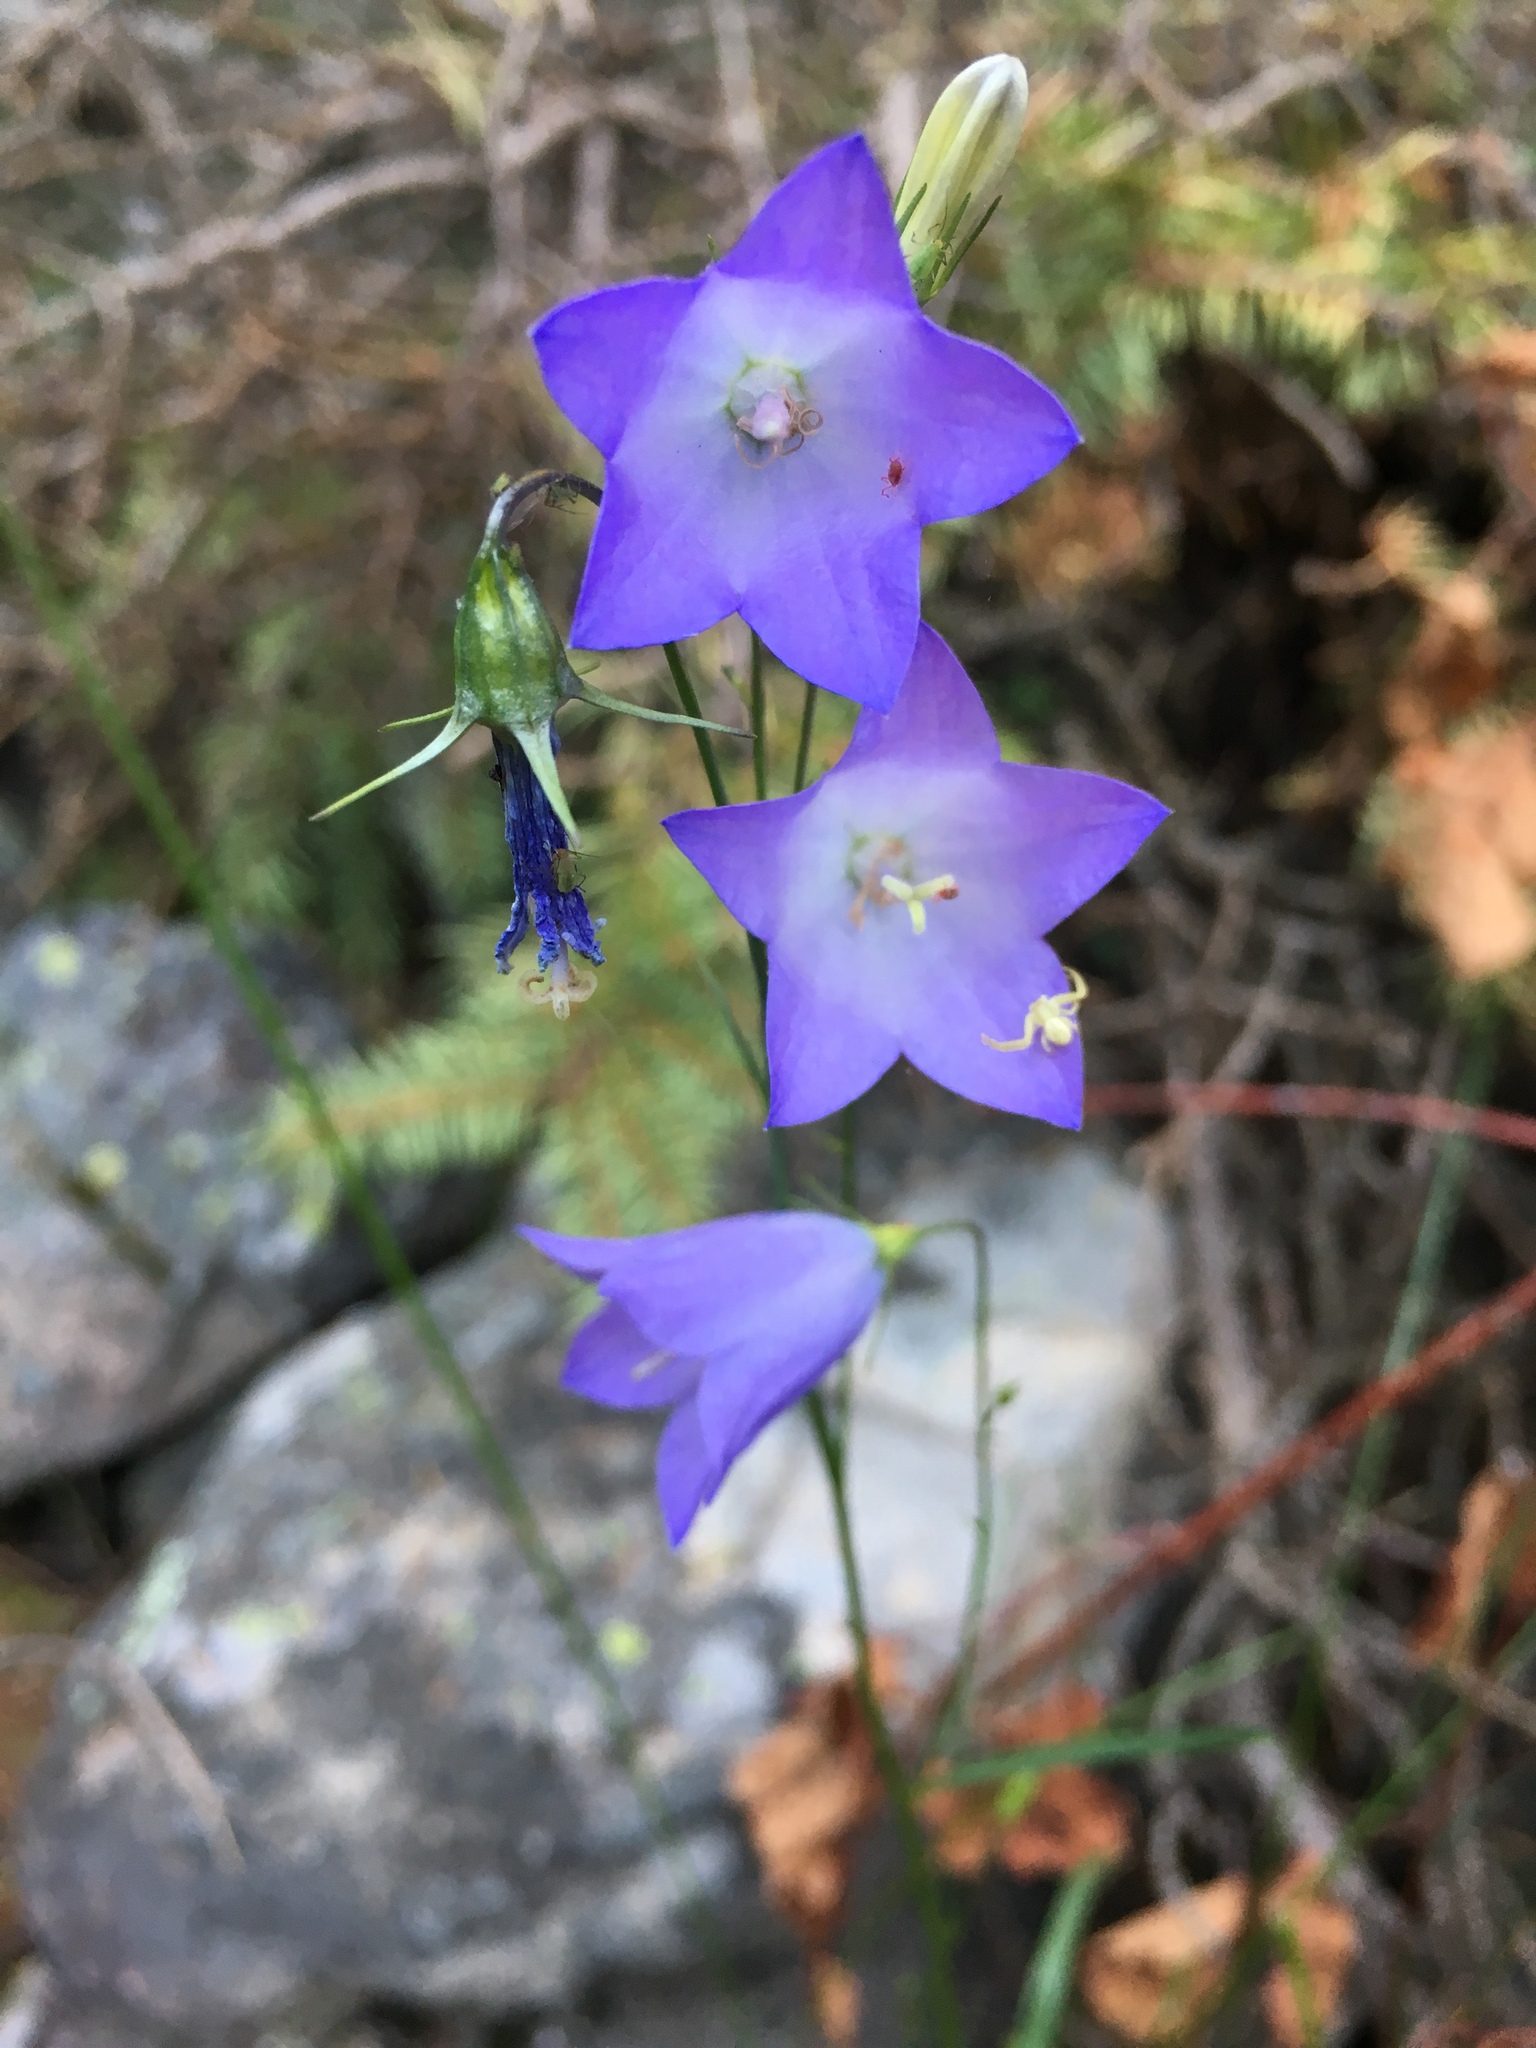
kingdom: Plantae
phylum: Tracheophyta
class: Magnoliopsida
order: Asterales
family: Campanulaceae
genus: Campanula
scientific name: Campanula petiolata
